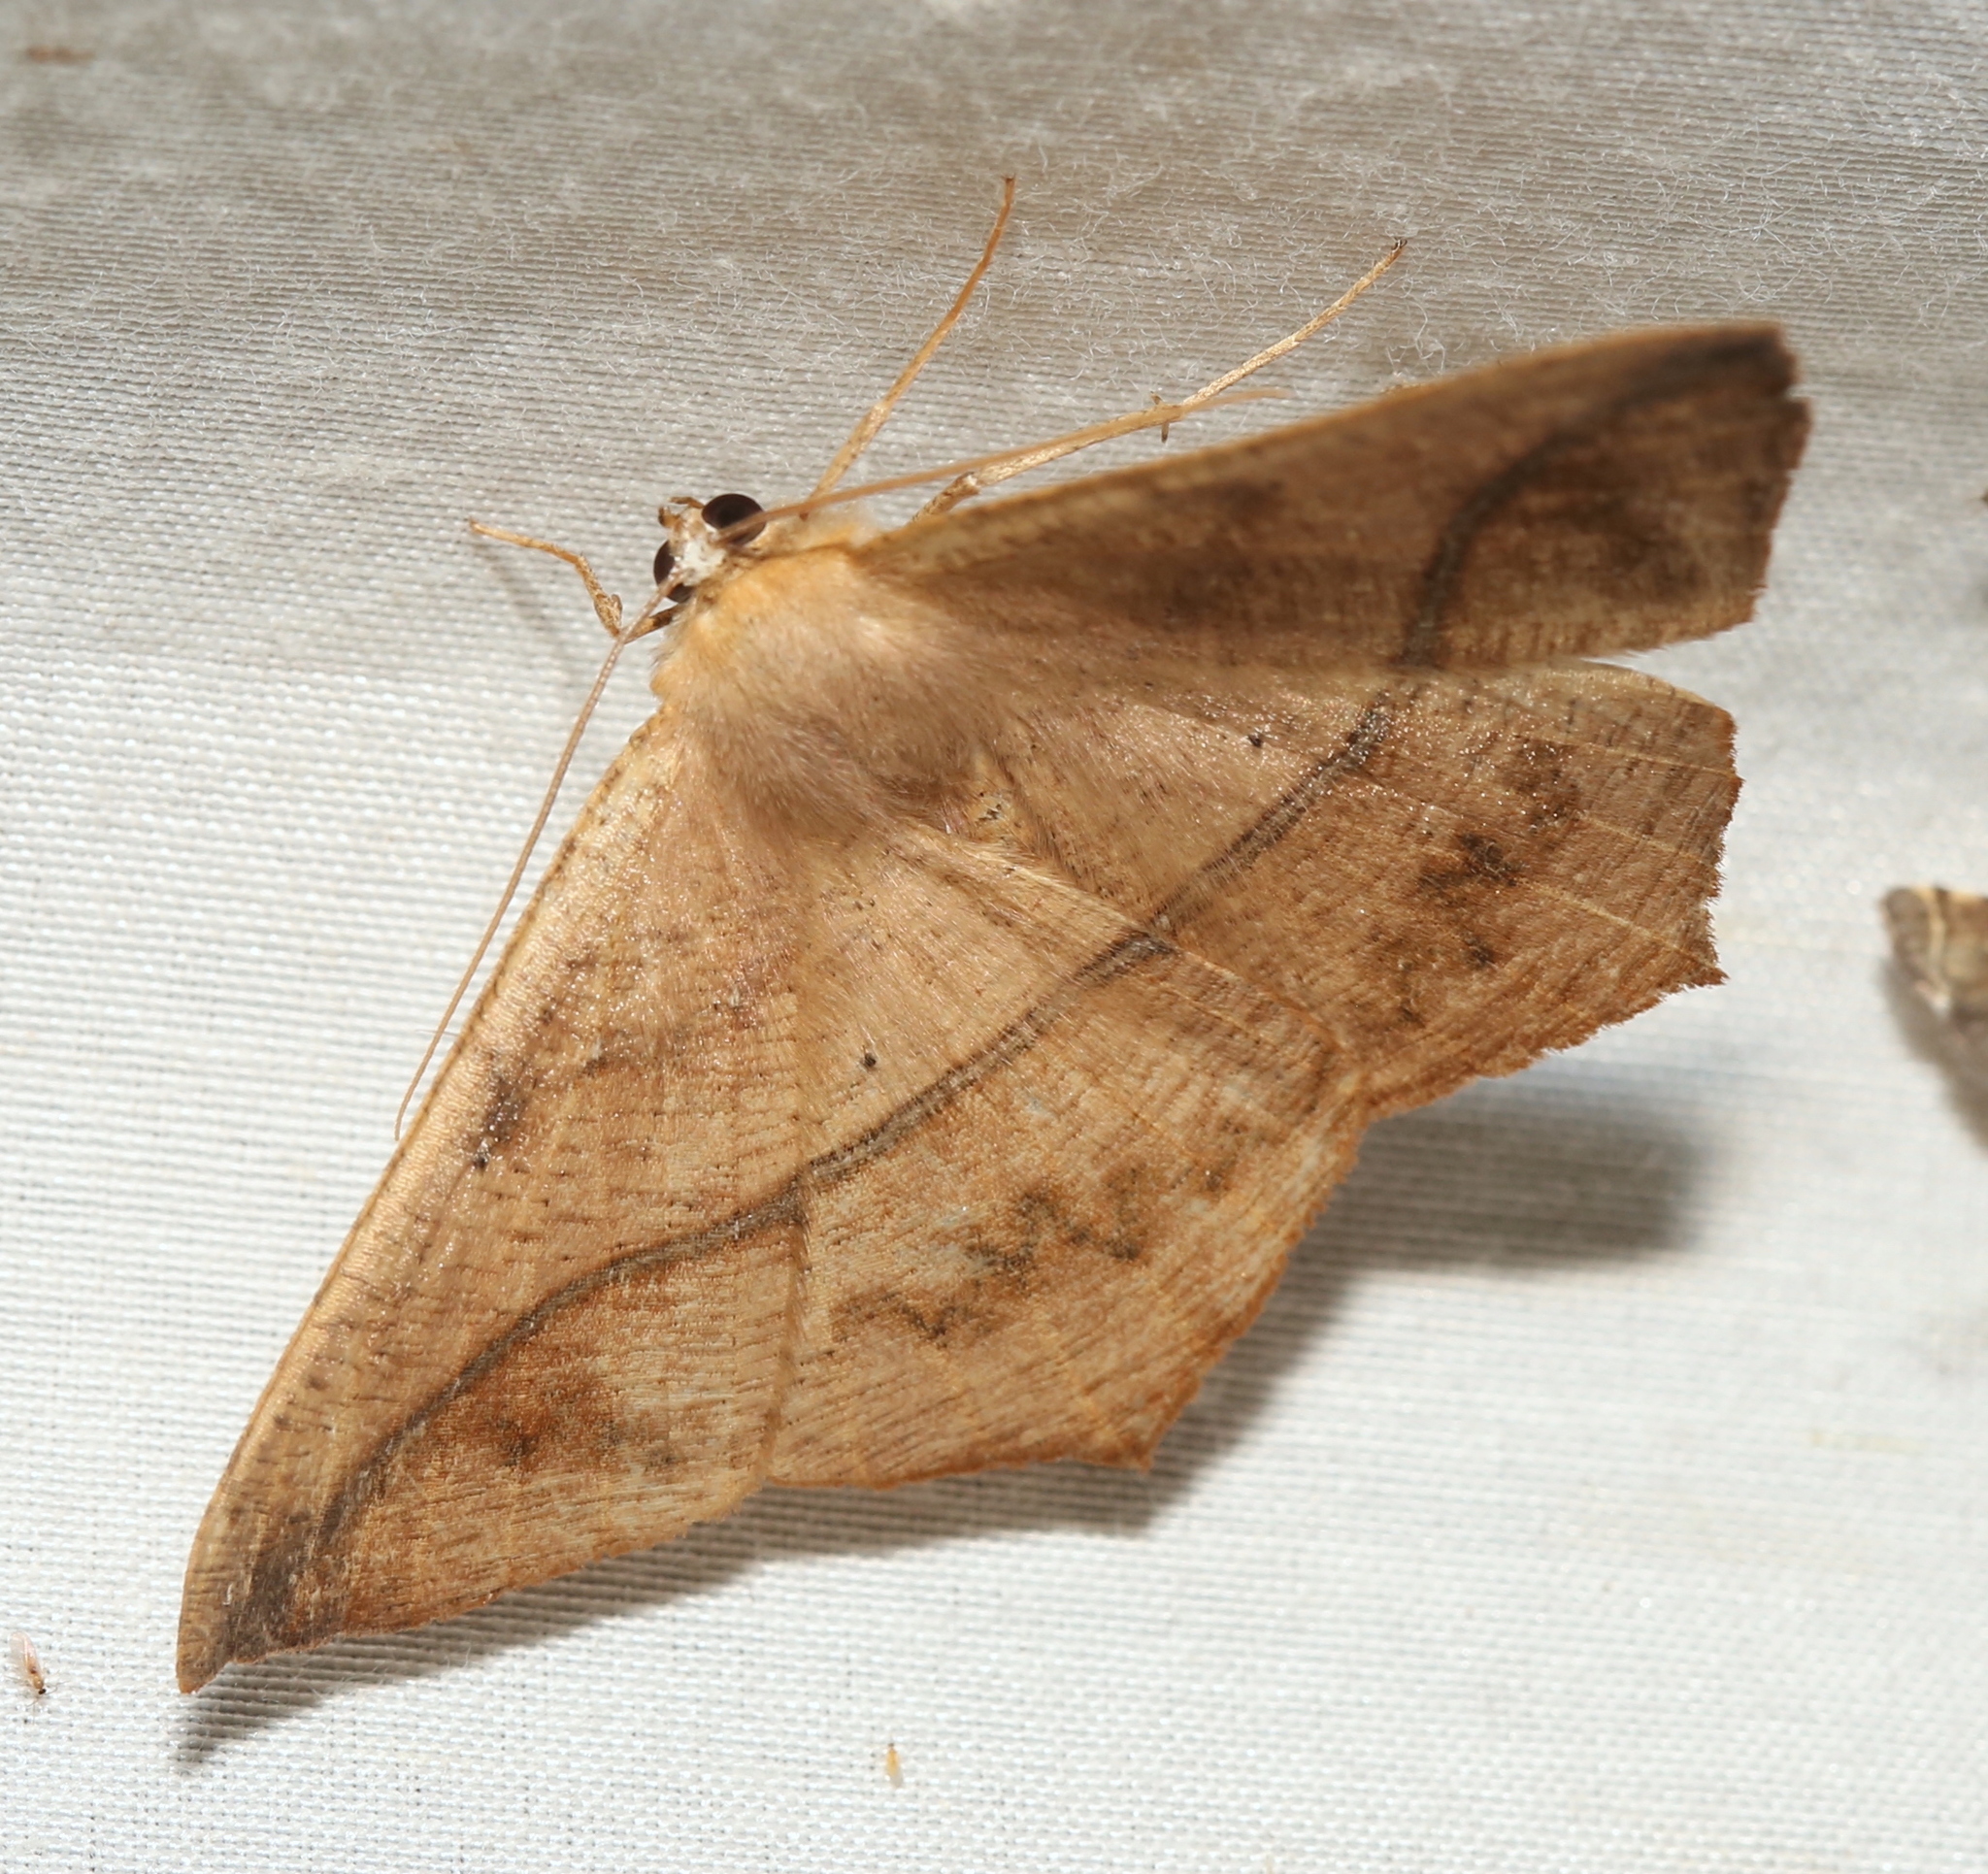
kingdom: Animalia
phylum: Arthropoda
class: Insecta
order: Lepidoptera
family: Geometridae
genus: Prochoerodes
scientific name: Prochoerodes lineola
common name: Large maple spanworm
